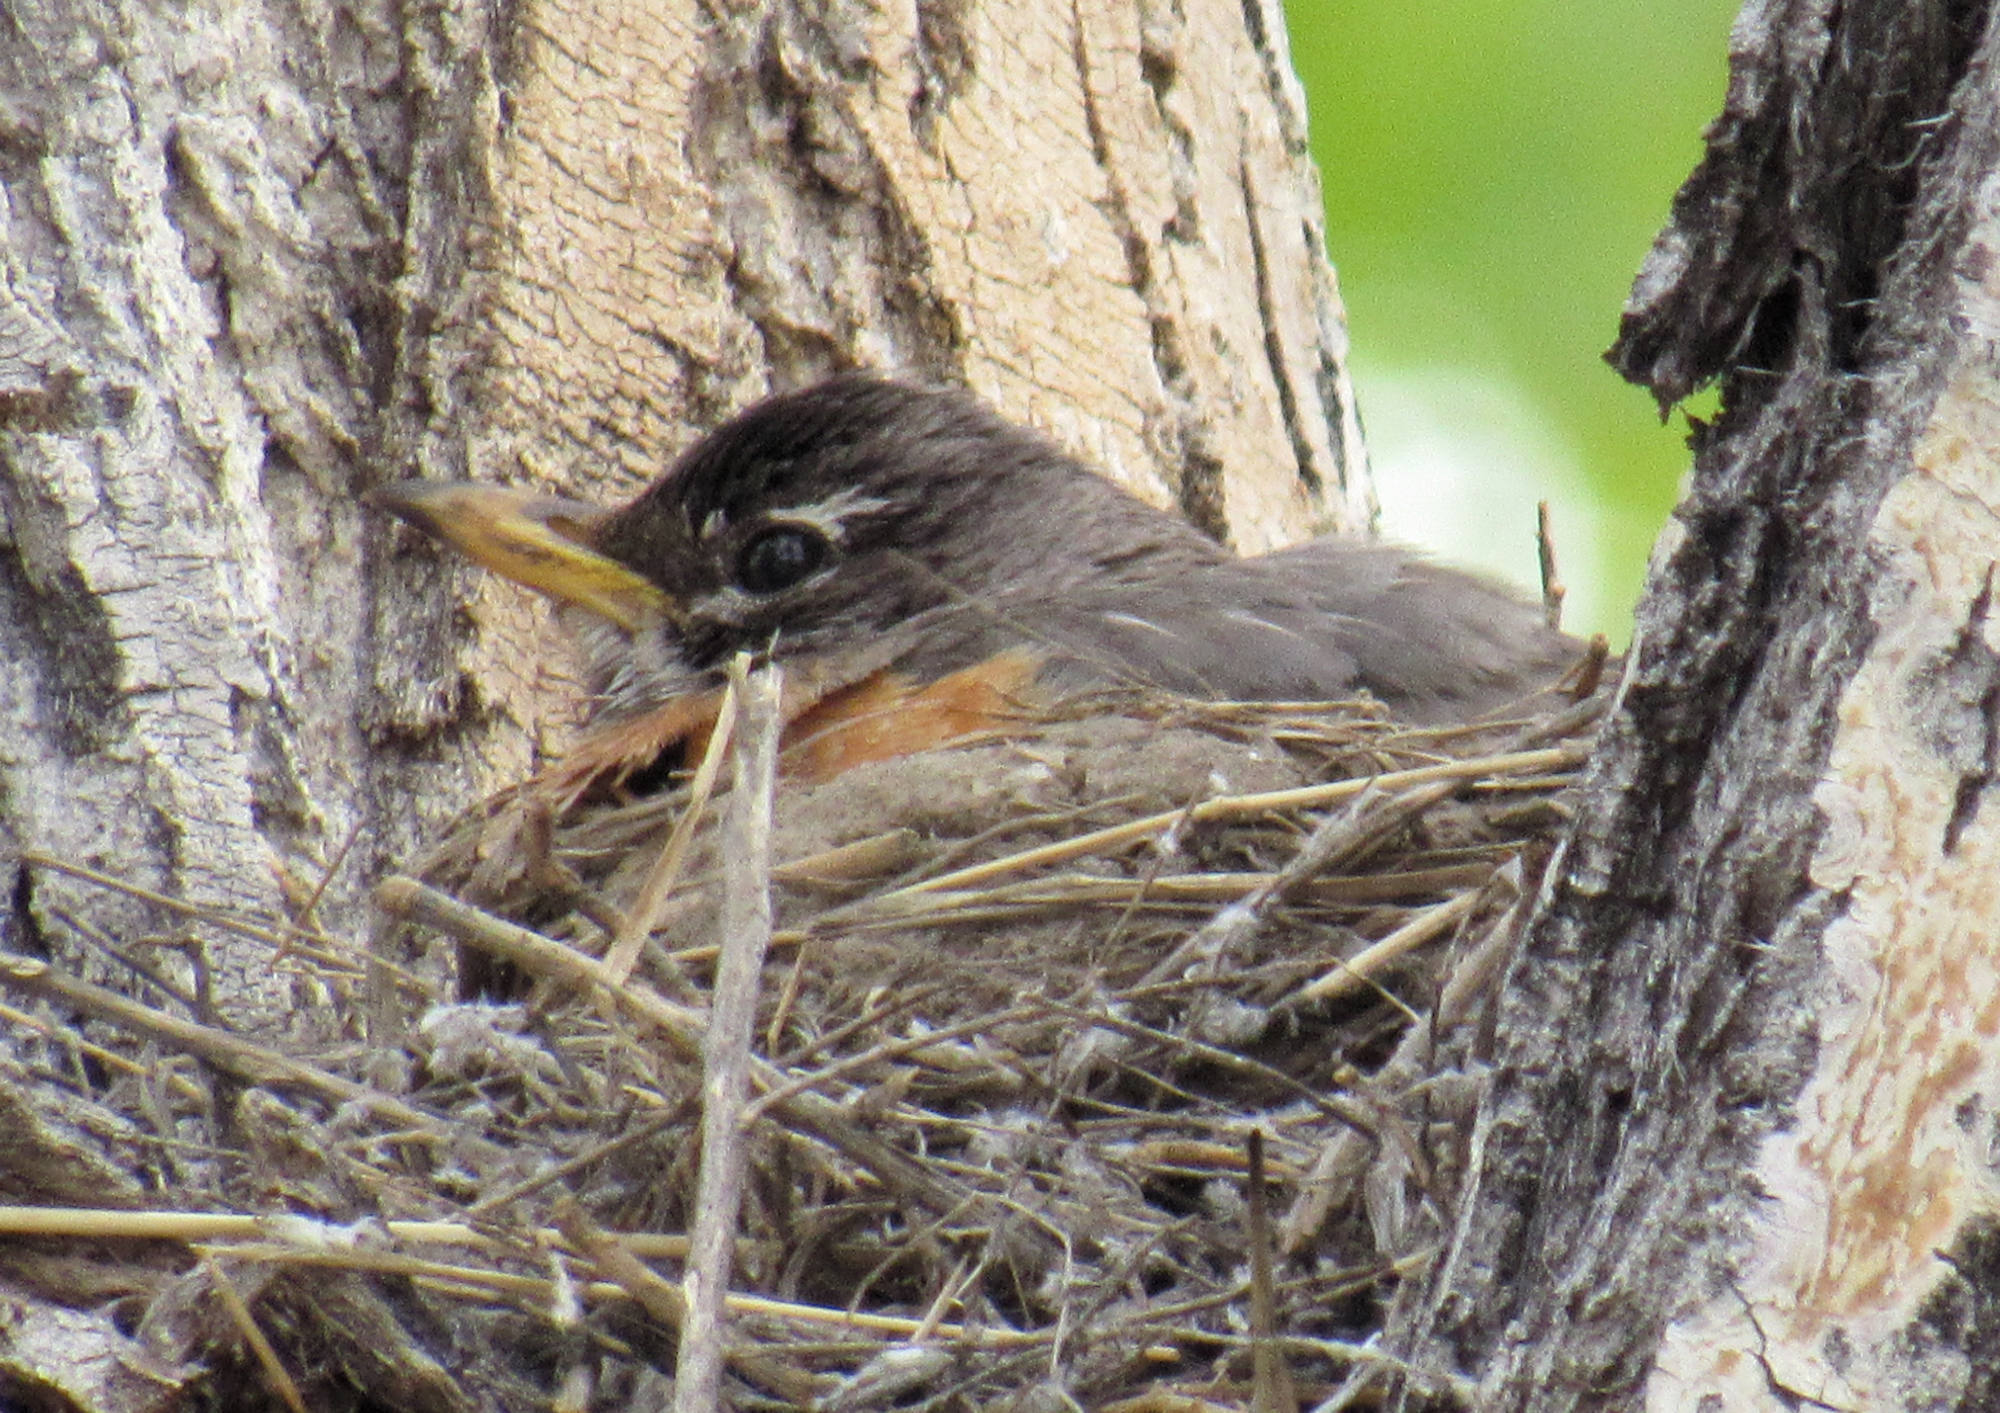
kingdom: Animalia
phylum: Chordata
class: Aves
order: Passeriformes
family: Turdidae
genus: Turdus
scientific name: Turdus migratorius
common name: American robin
